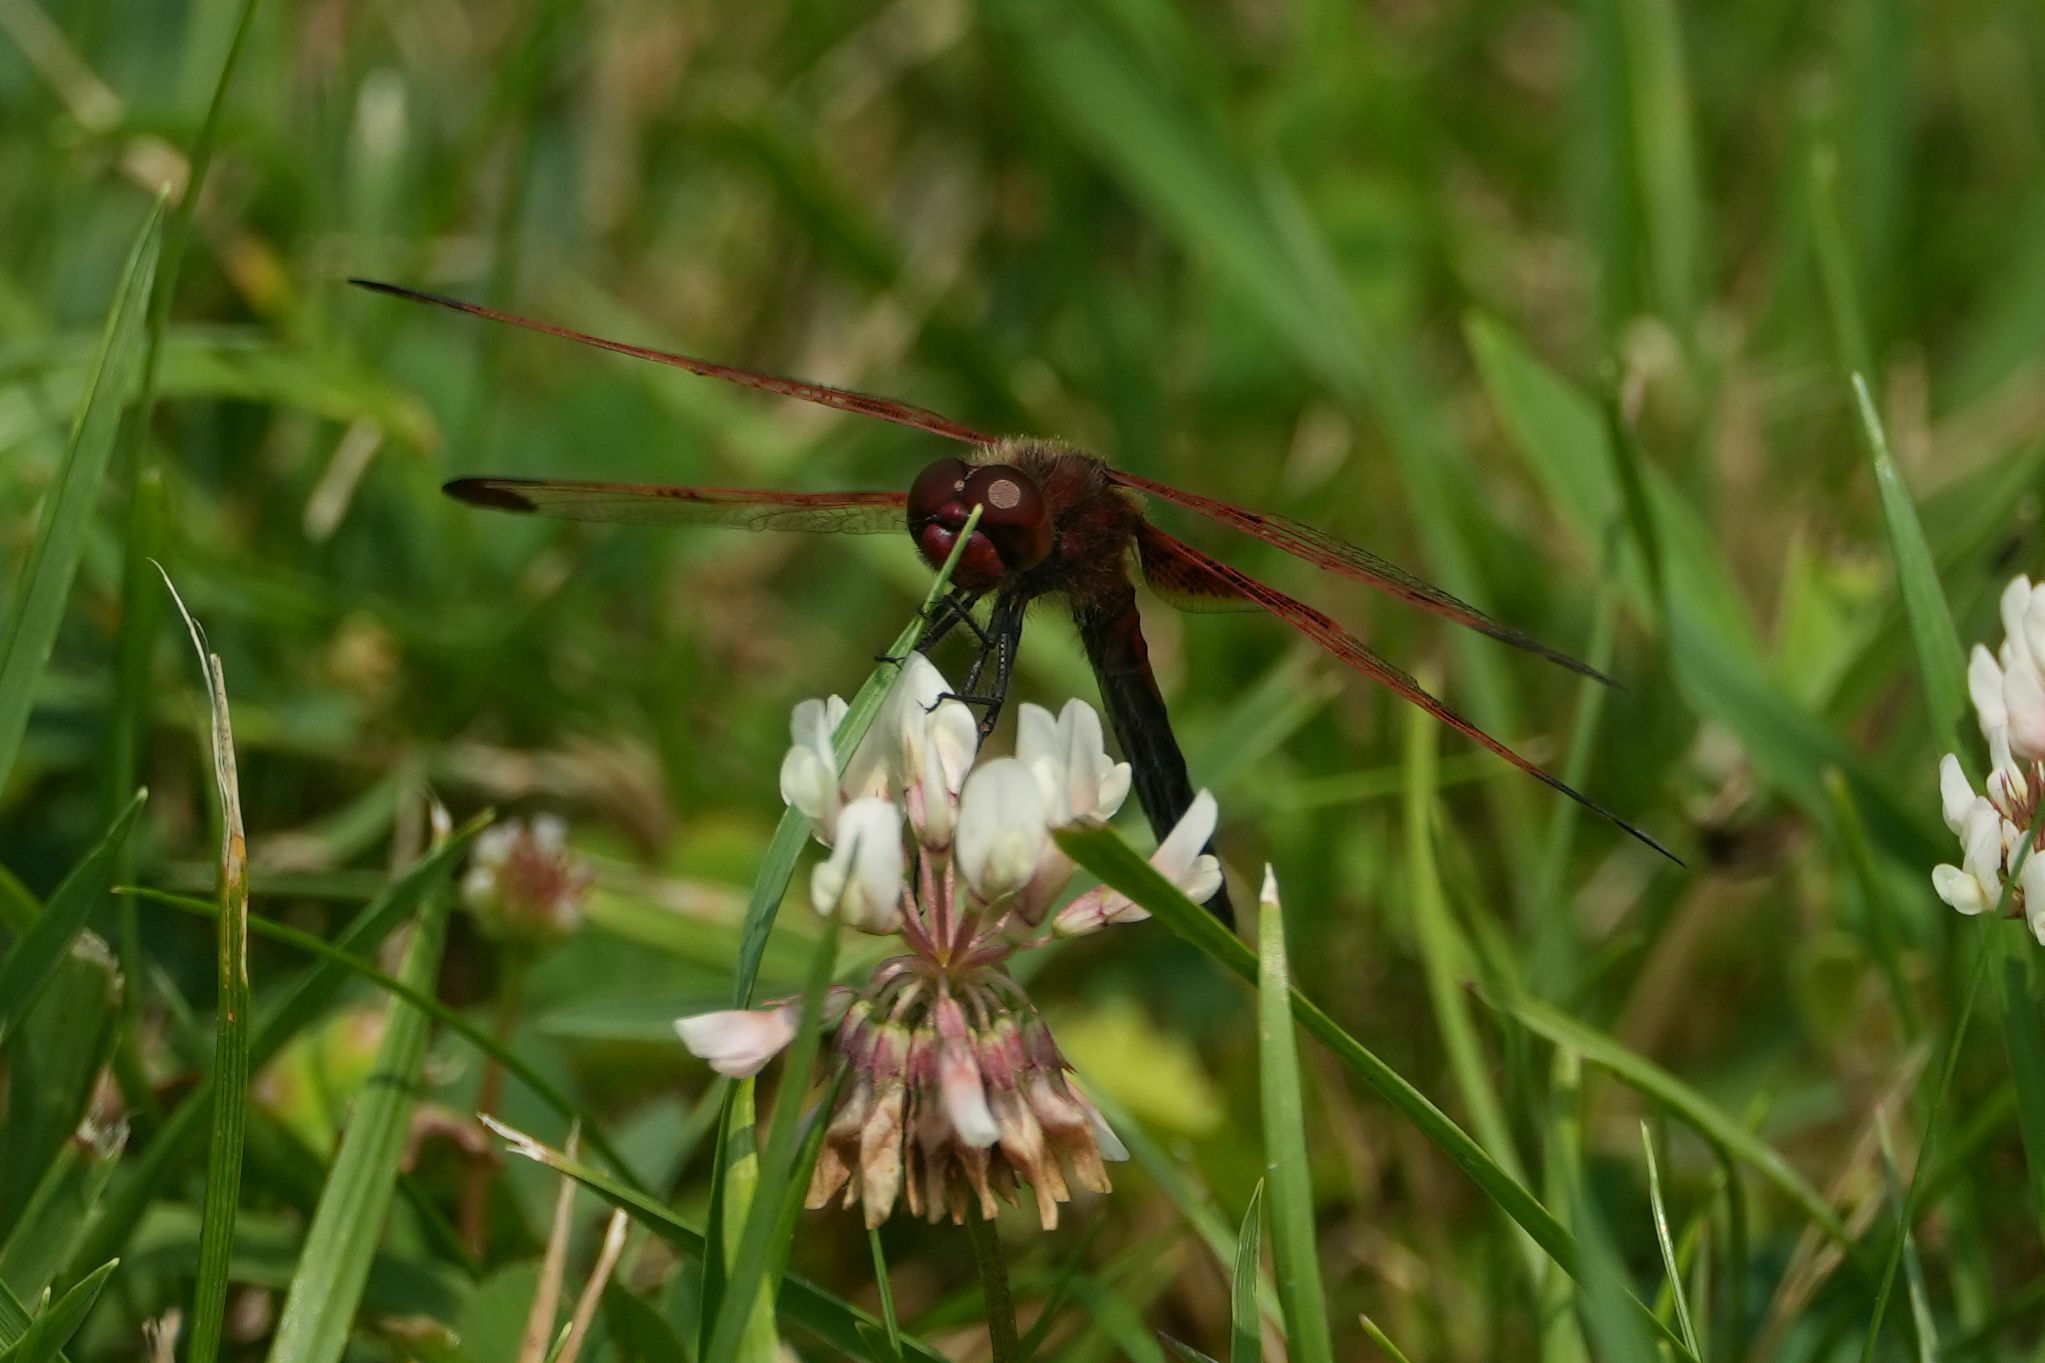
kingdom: Animalia
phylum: Arthropoda
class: Insecta
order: Odonata
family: Libellulidae
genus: Celithemis
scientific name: Celithemis elisa
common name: Calico pennant
